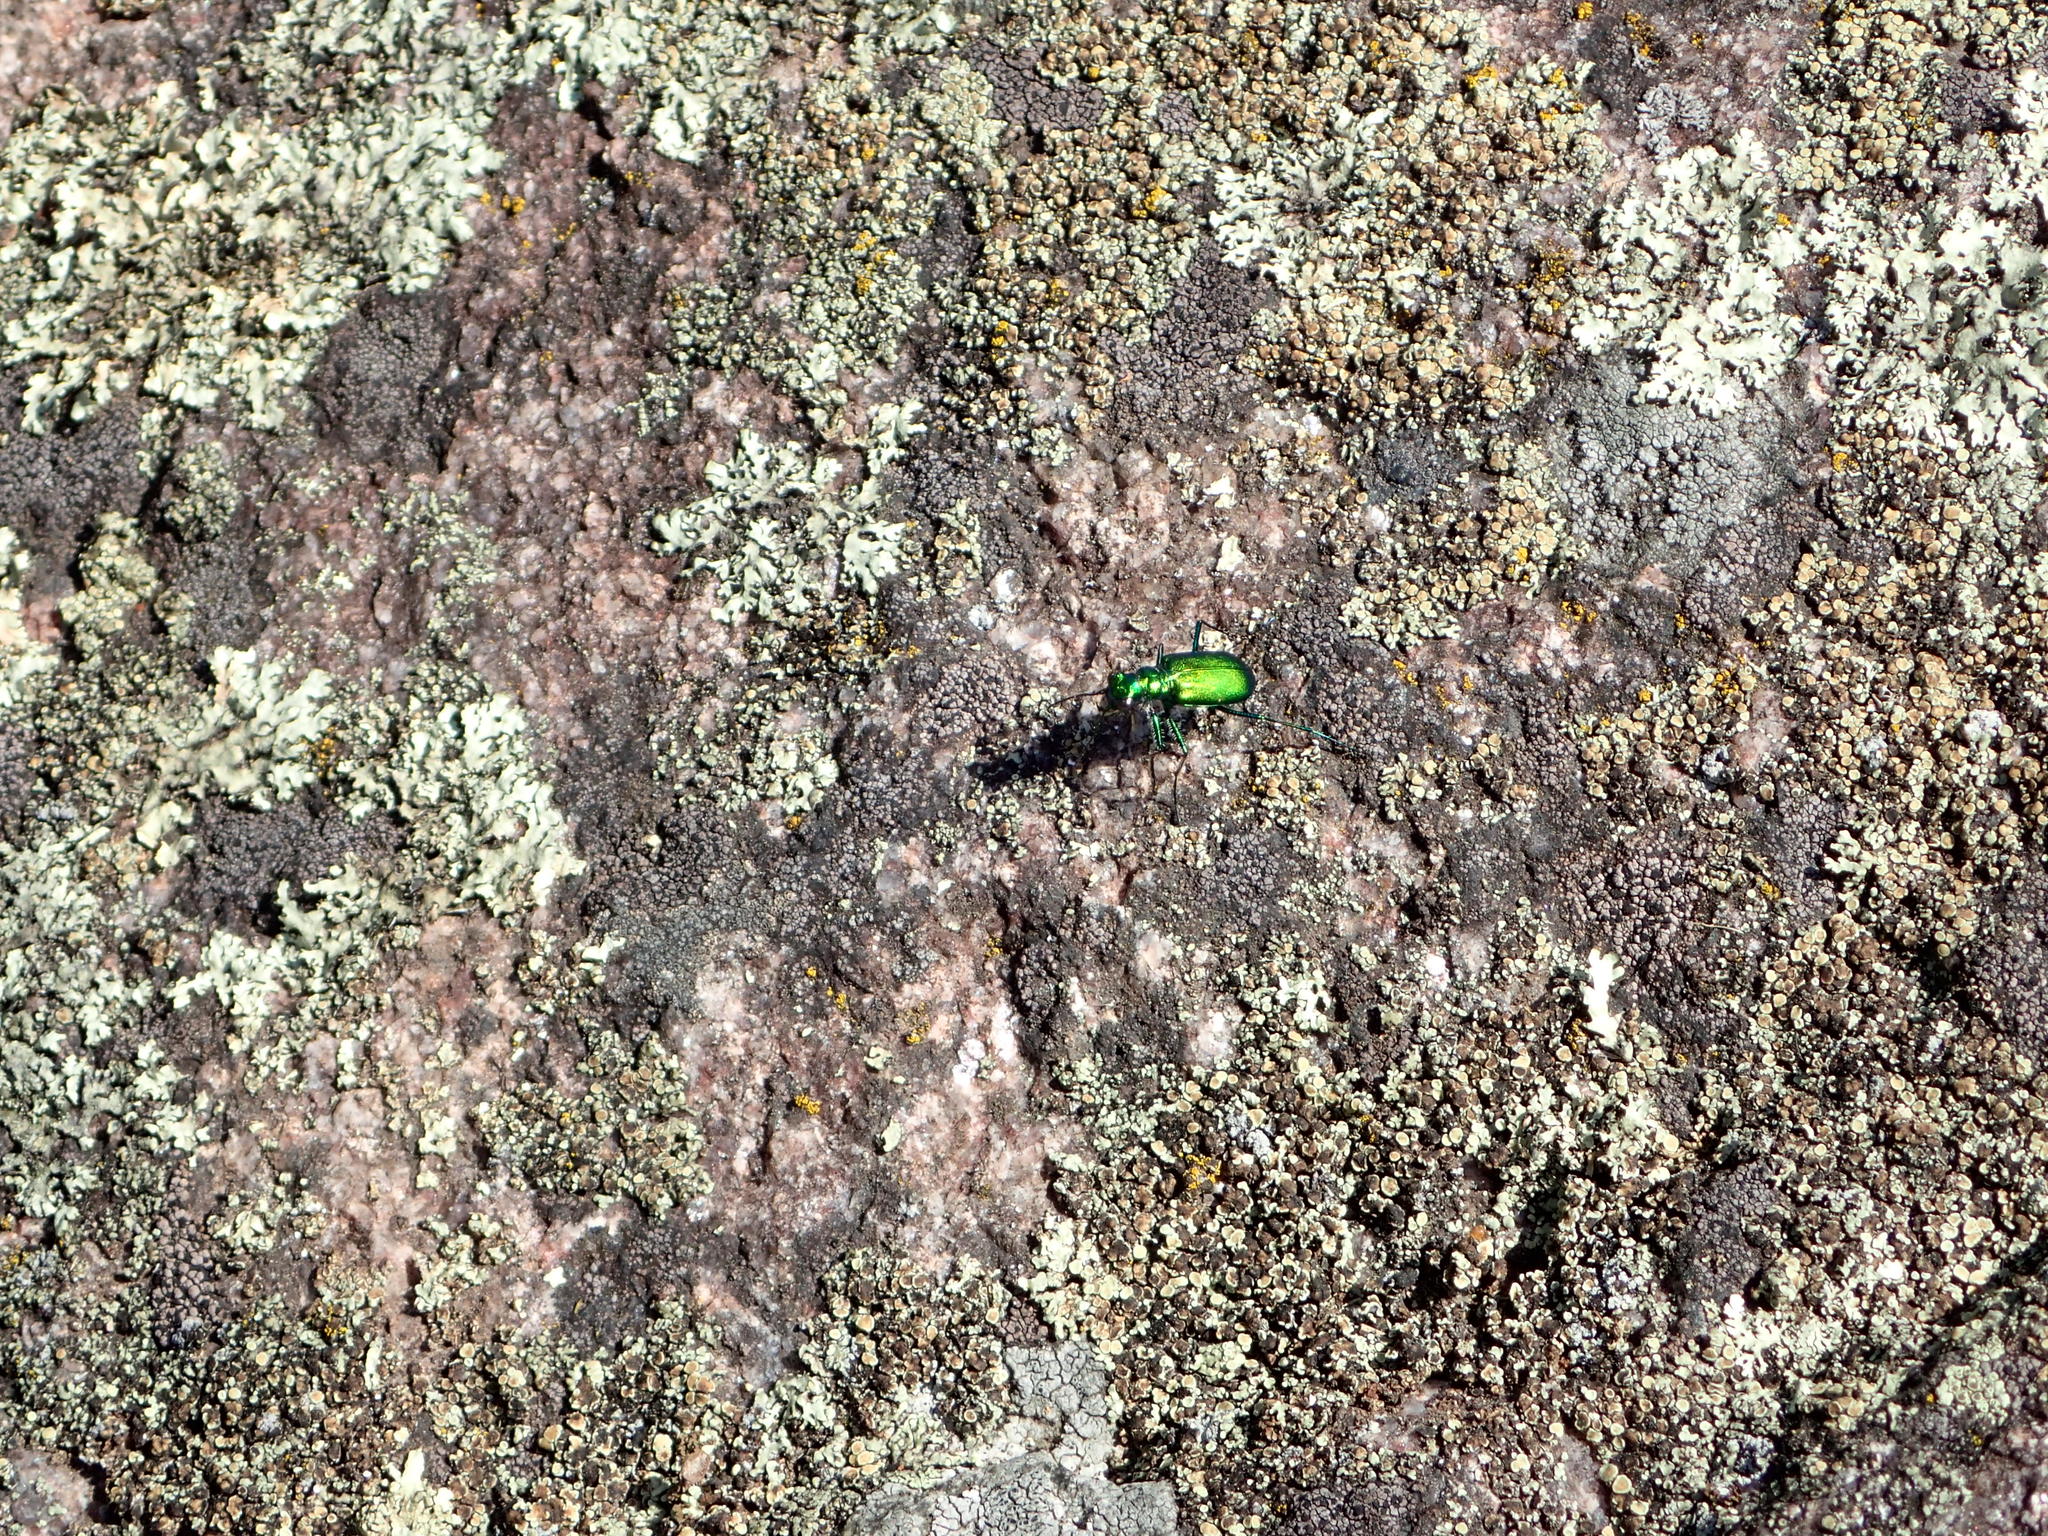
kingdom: Animalia
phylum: Arthropoda
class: Insecta
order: Coleoptera
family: Carabidae
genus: Cicindela
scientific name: Cicindela denikei
